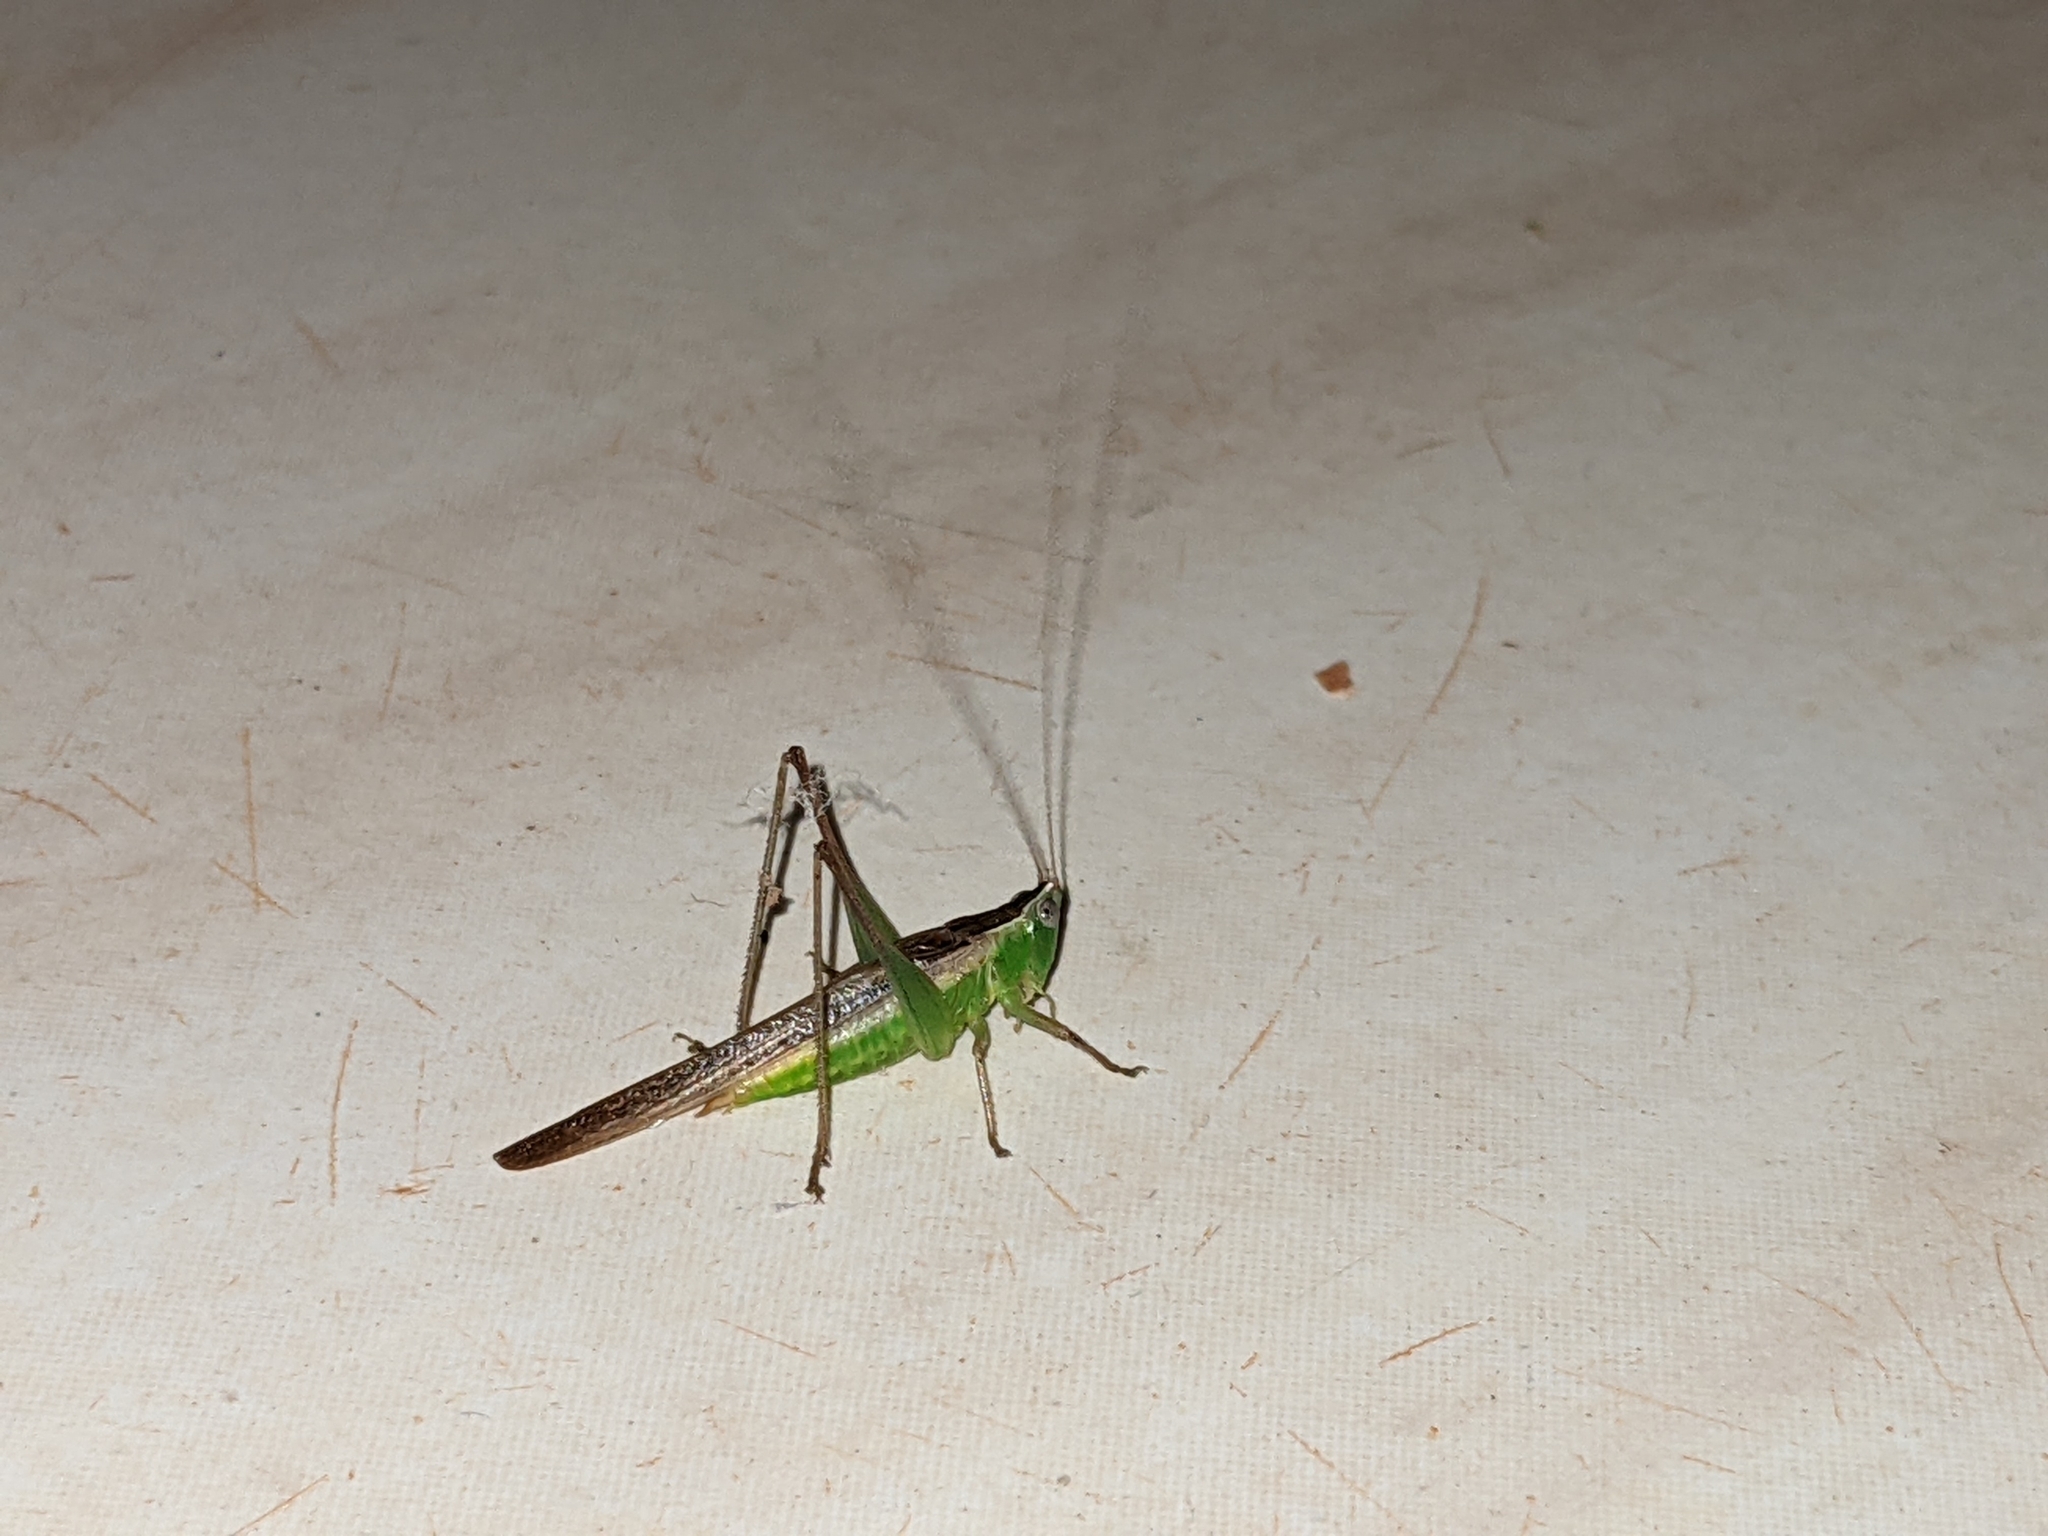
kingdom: Animalia
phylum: Arthropoda
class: Insecta
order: Orthoptera
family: Tettigoniidae
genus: Conocephalus
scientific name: Conocephalus maculatus
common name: Spotted meadow katydid
